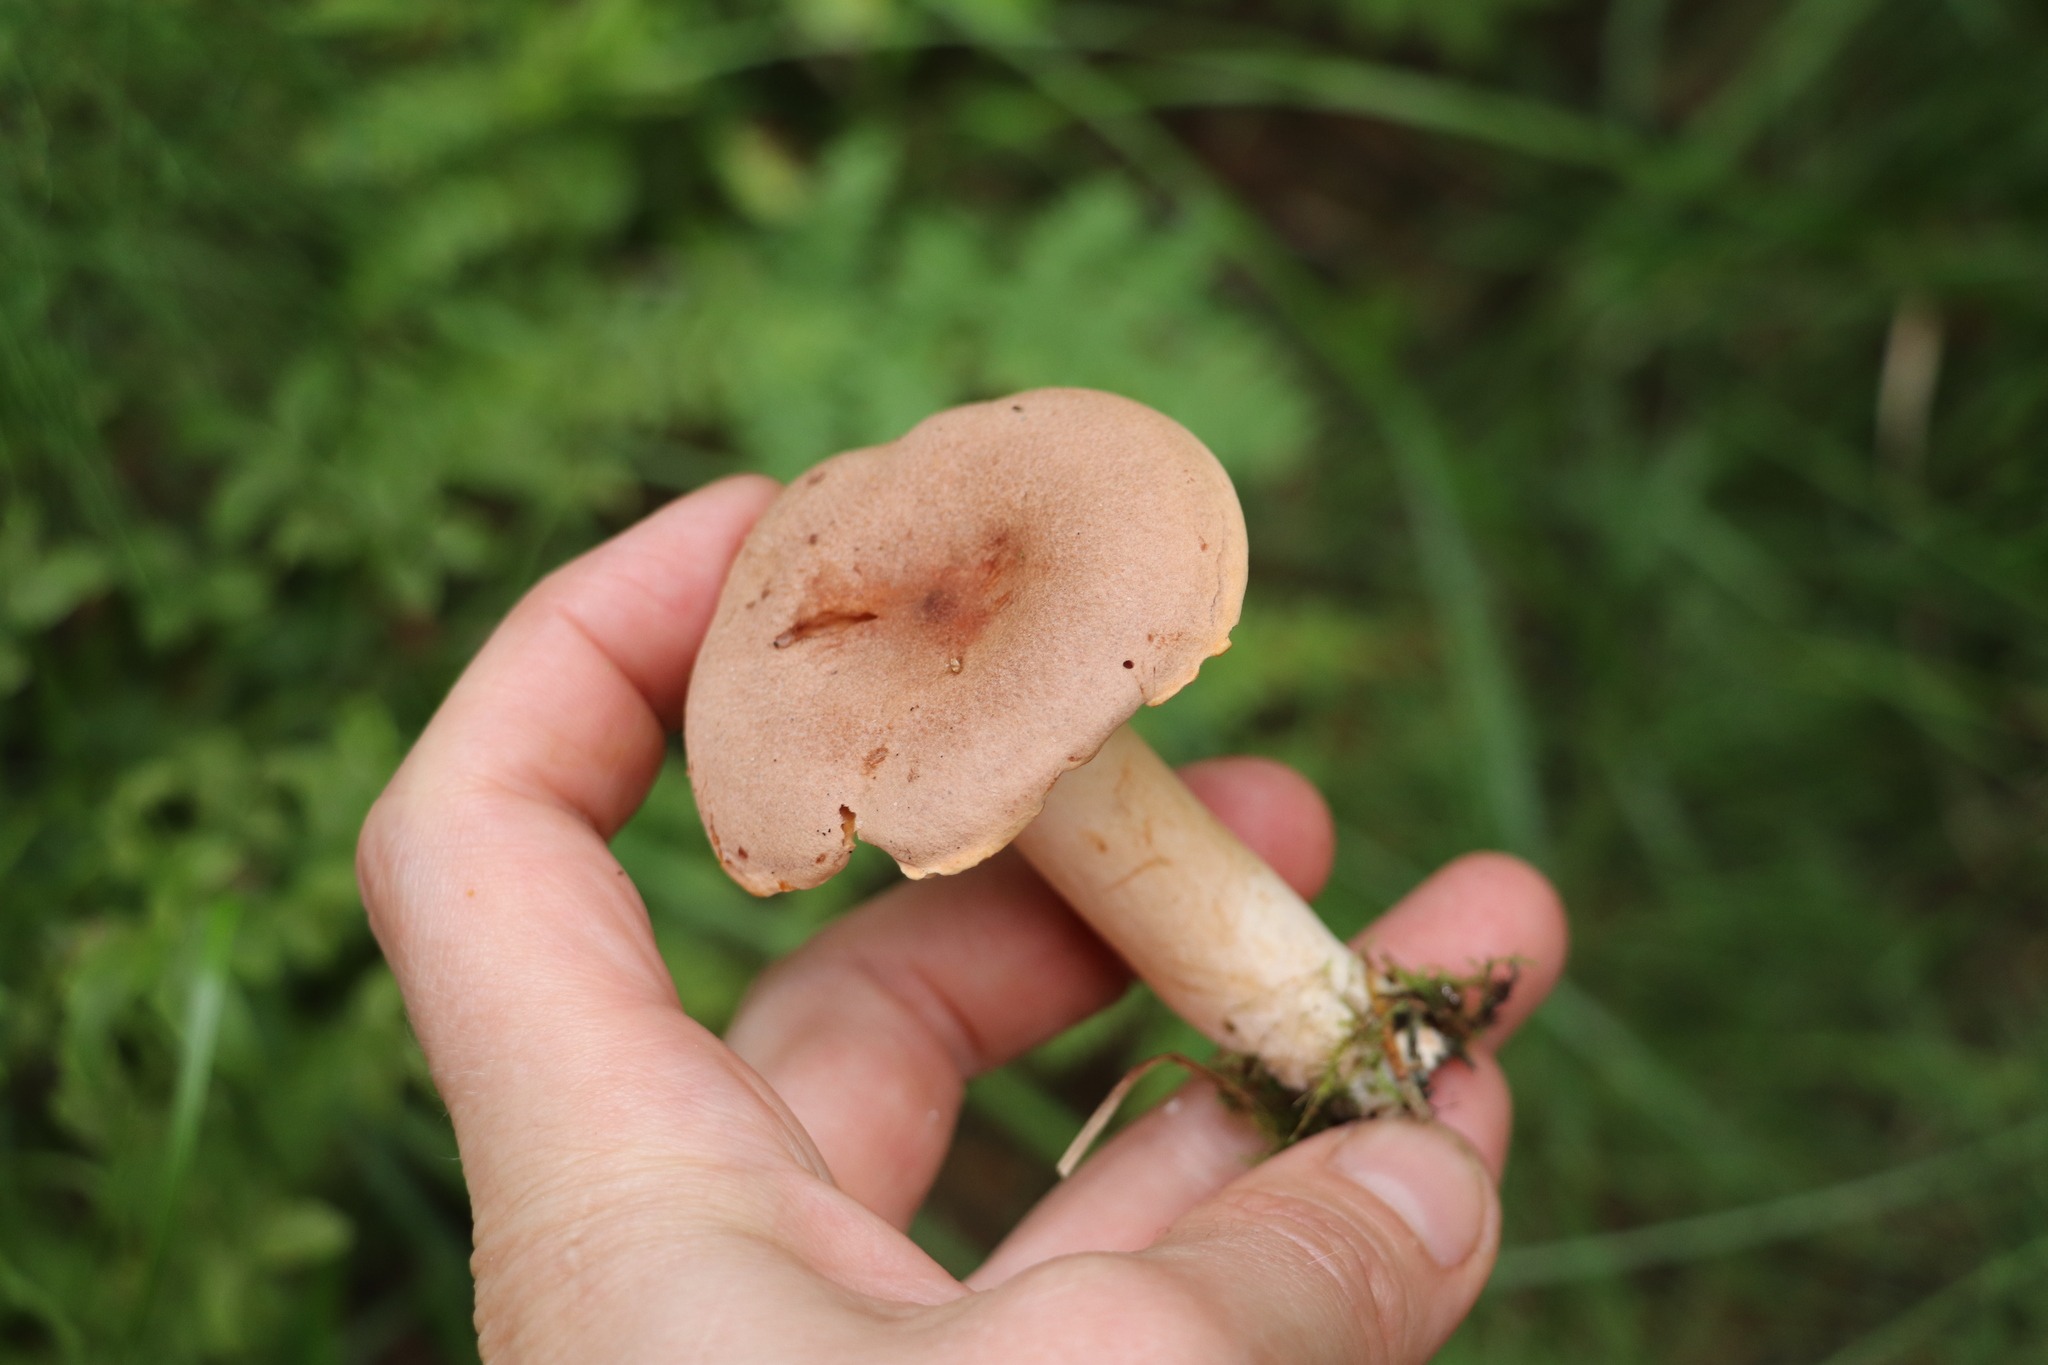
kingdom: Fungi
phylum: Basidiomycota
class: Agaricomycetes
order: Russulales
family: Russulaceae
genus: Lactarius
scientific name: Lactarius helvus
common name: Fenugreek milkcap
